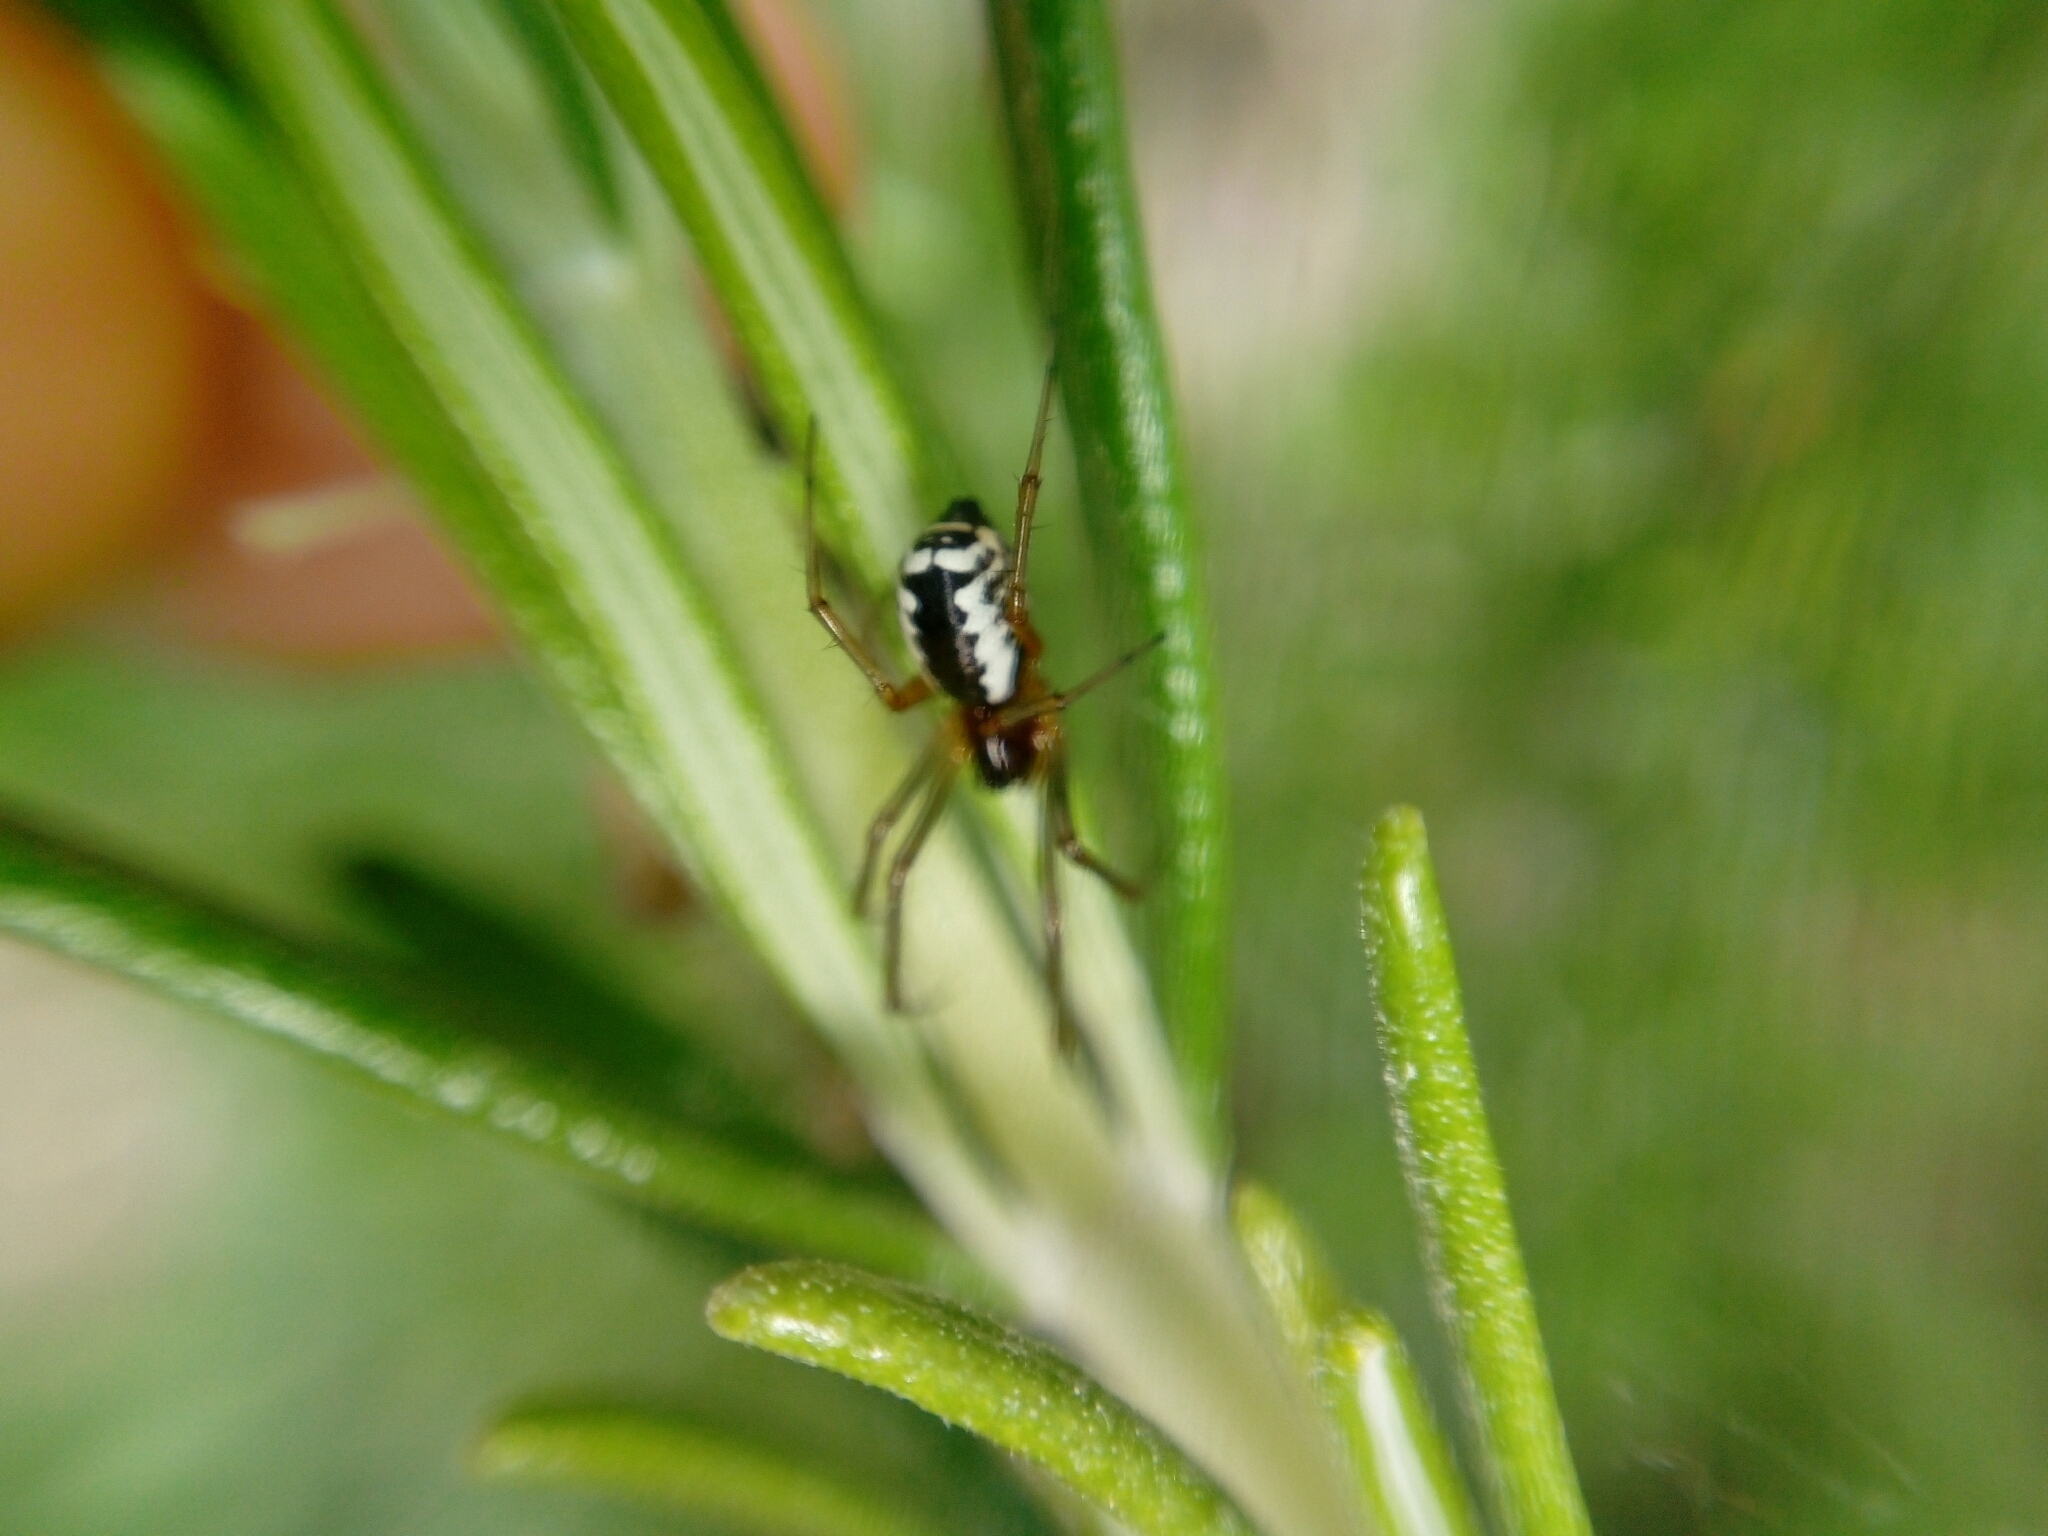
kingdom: Animalia
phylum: Arthropoda
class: Arachnida
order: Araneae
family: Linyphiidae
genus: Frontinellina
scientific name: Frontinellina frutetorum
